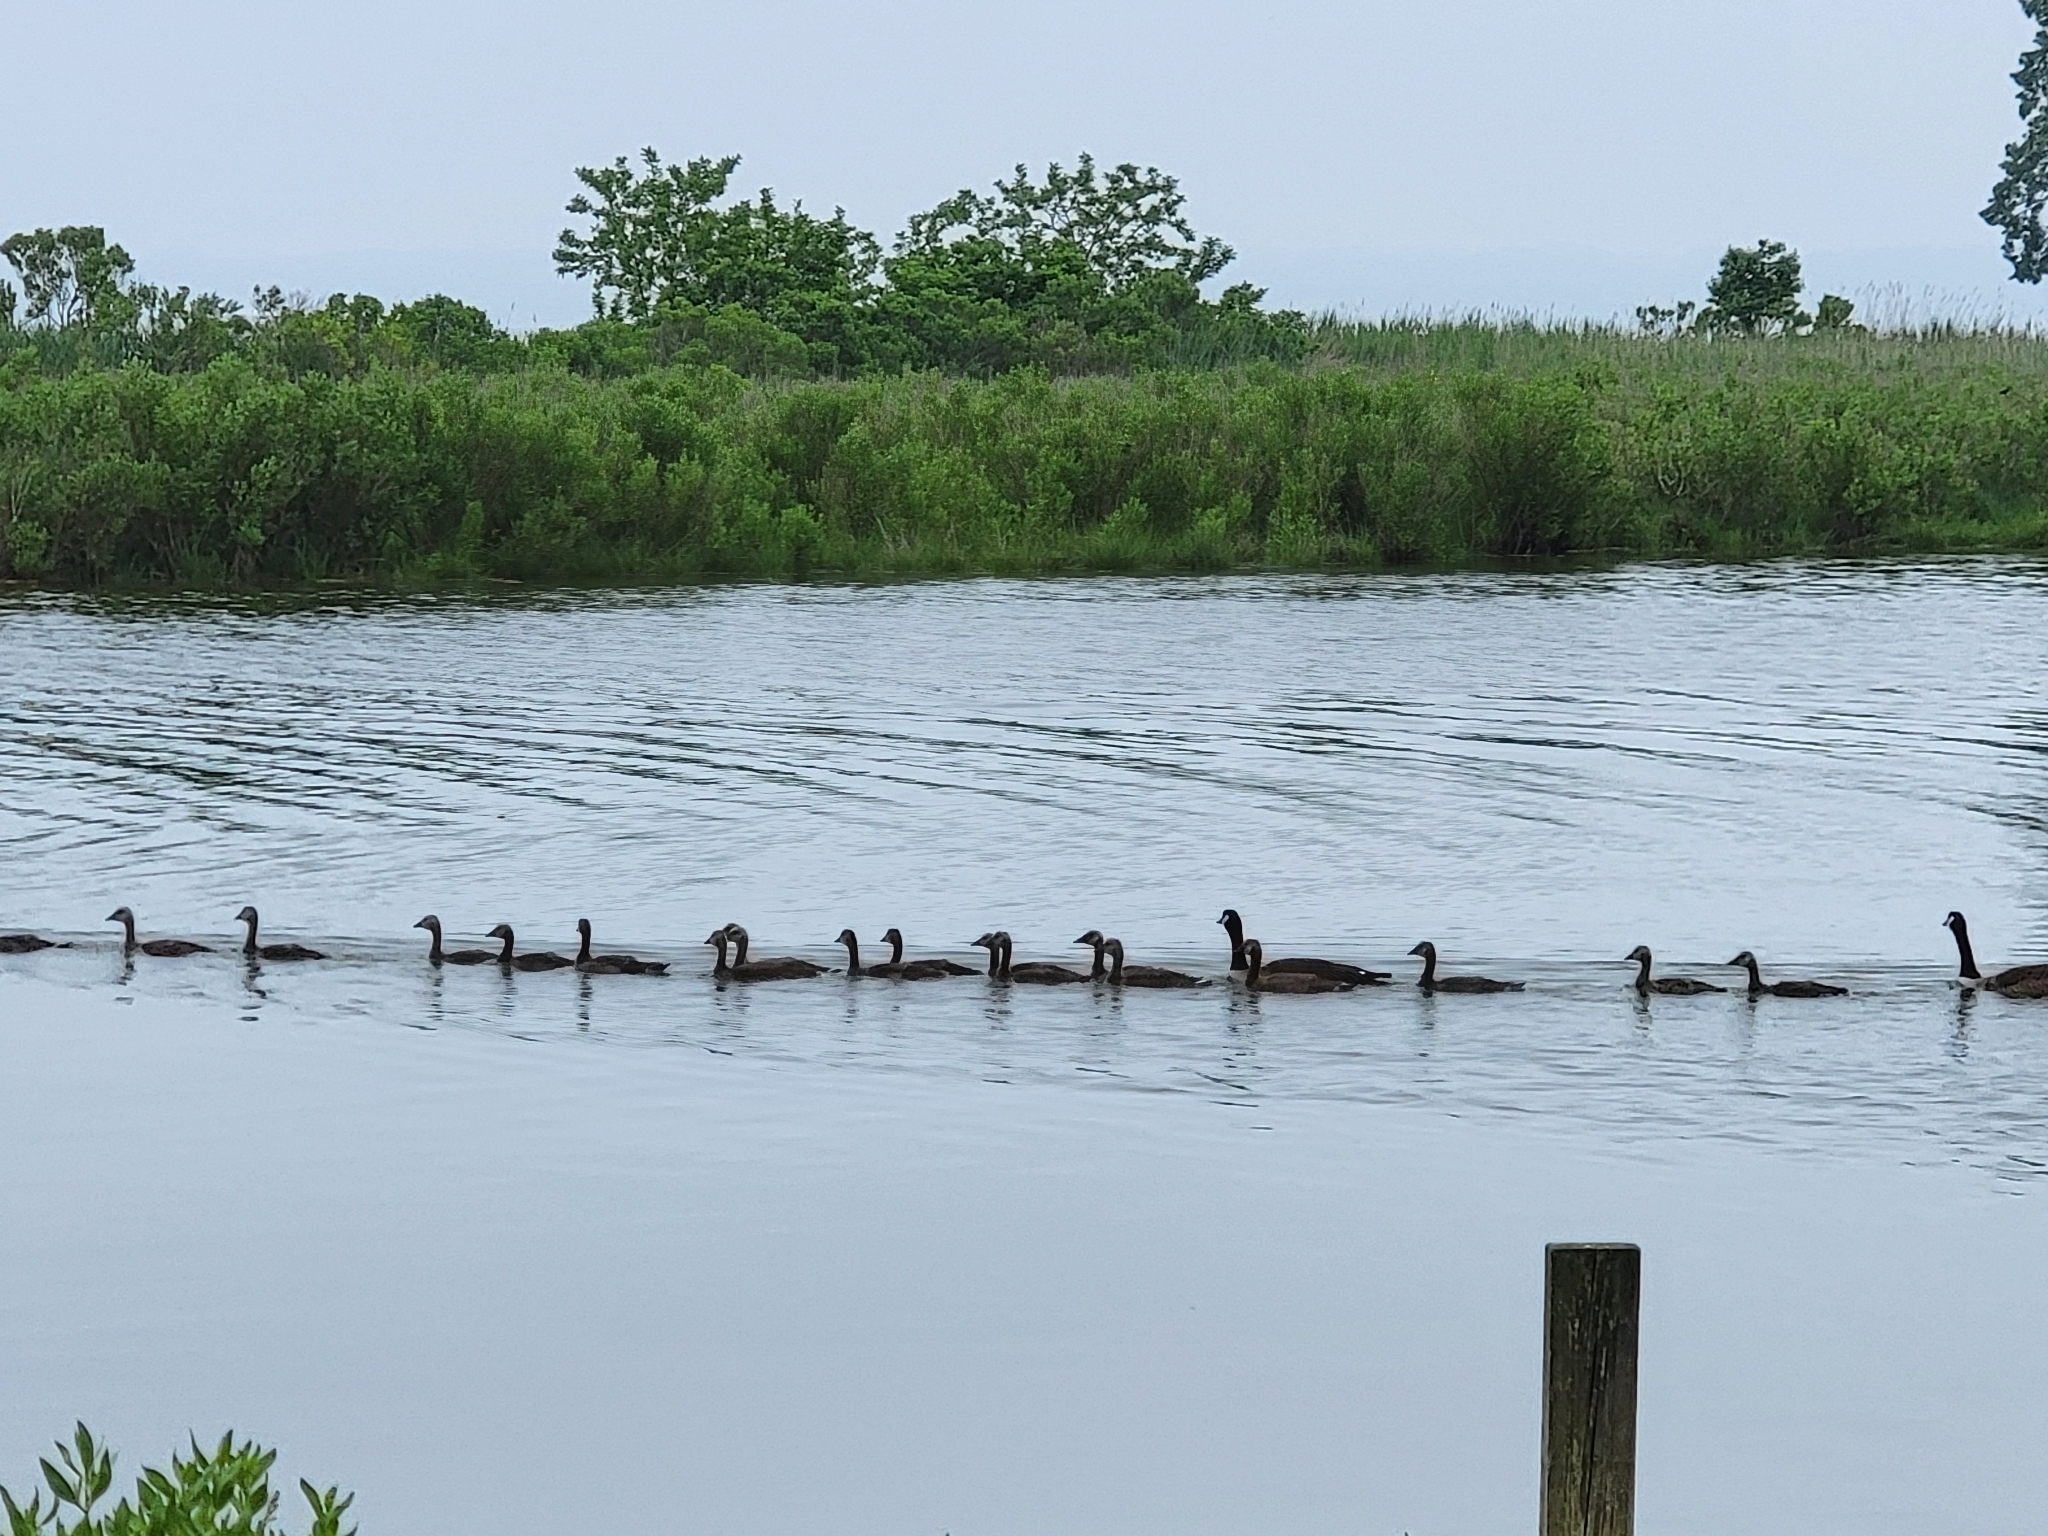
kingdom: Animalia
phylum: Chordata
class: Aves
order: Anseriformes
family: Anatidae
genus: Branta
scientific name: Branta canadensis
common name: Canada goose
